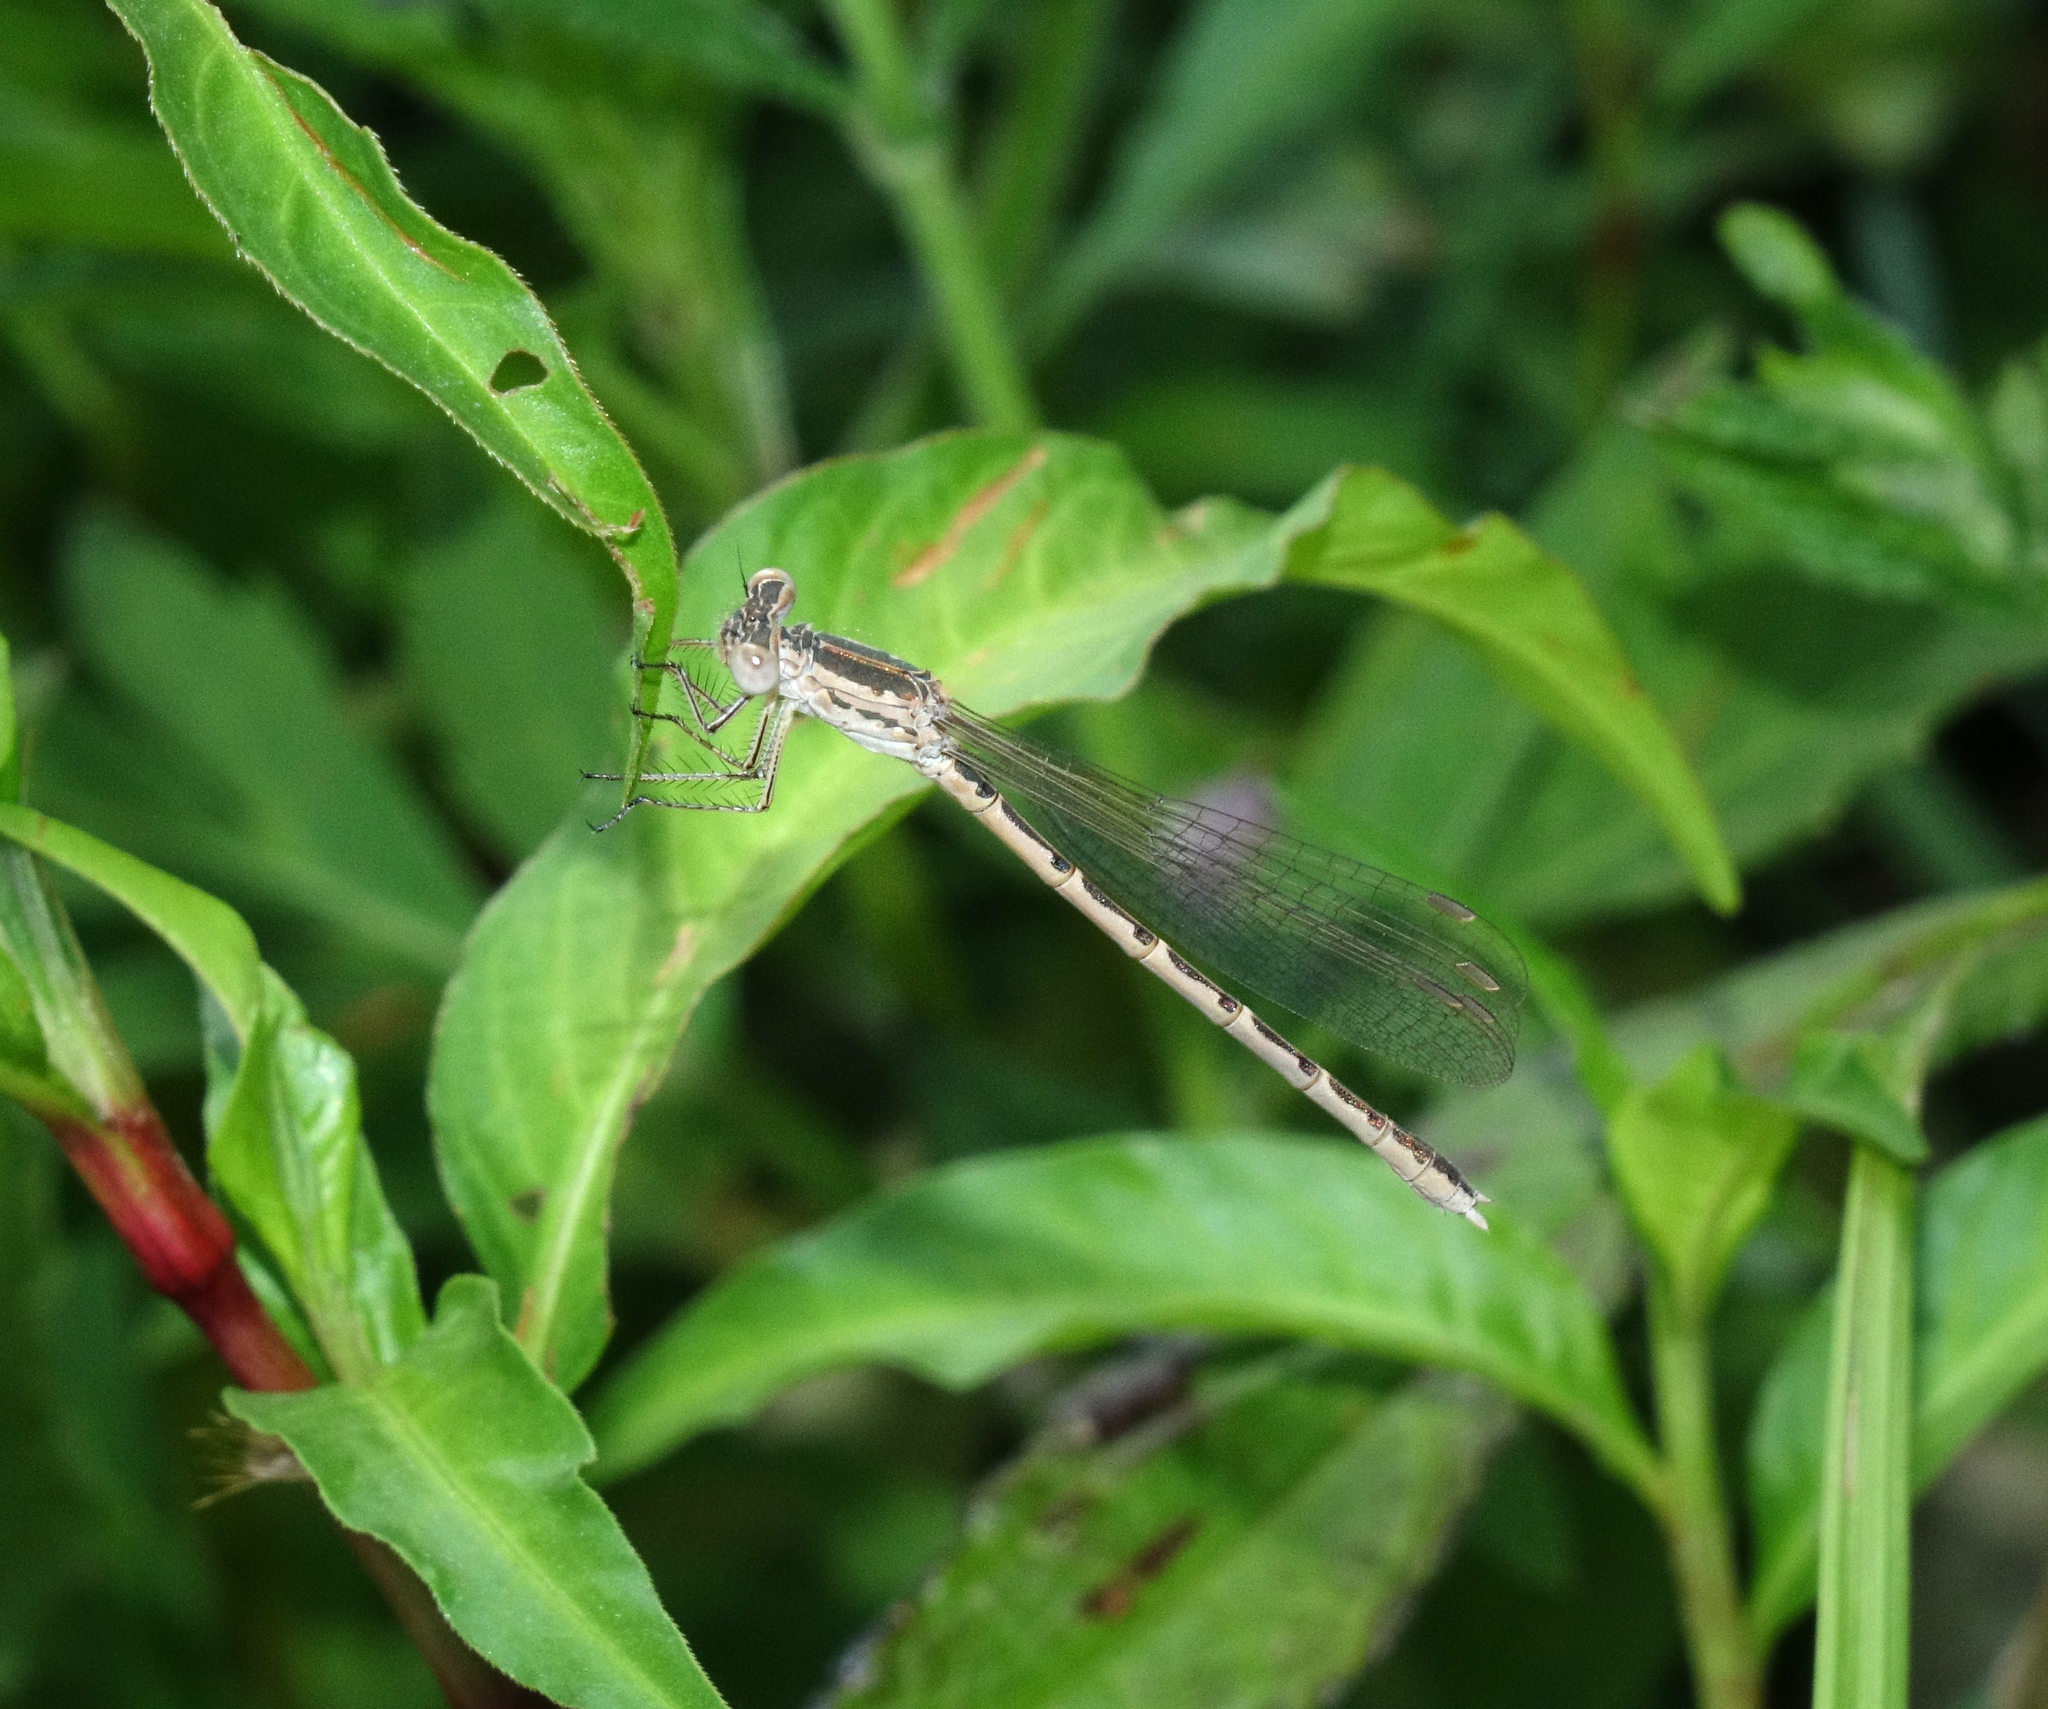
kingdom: Animalia
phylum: Arthropoda
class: Insecta
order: Odonata
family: Lestidae
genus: Sympecma
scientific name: Sympecma paedisca
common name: Siberian winter damsel
